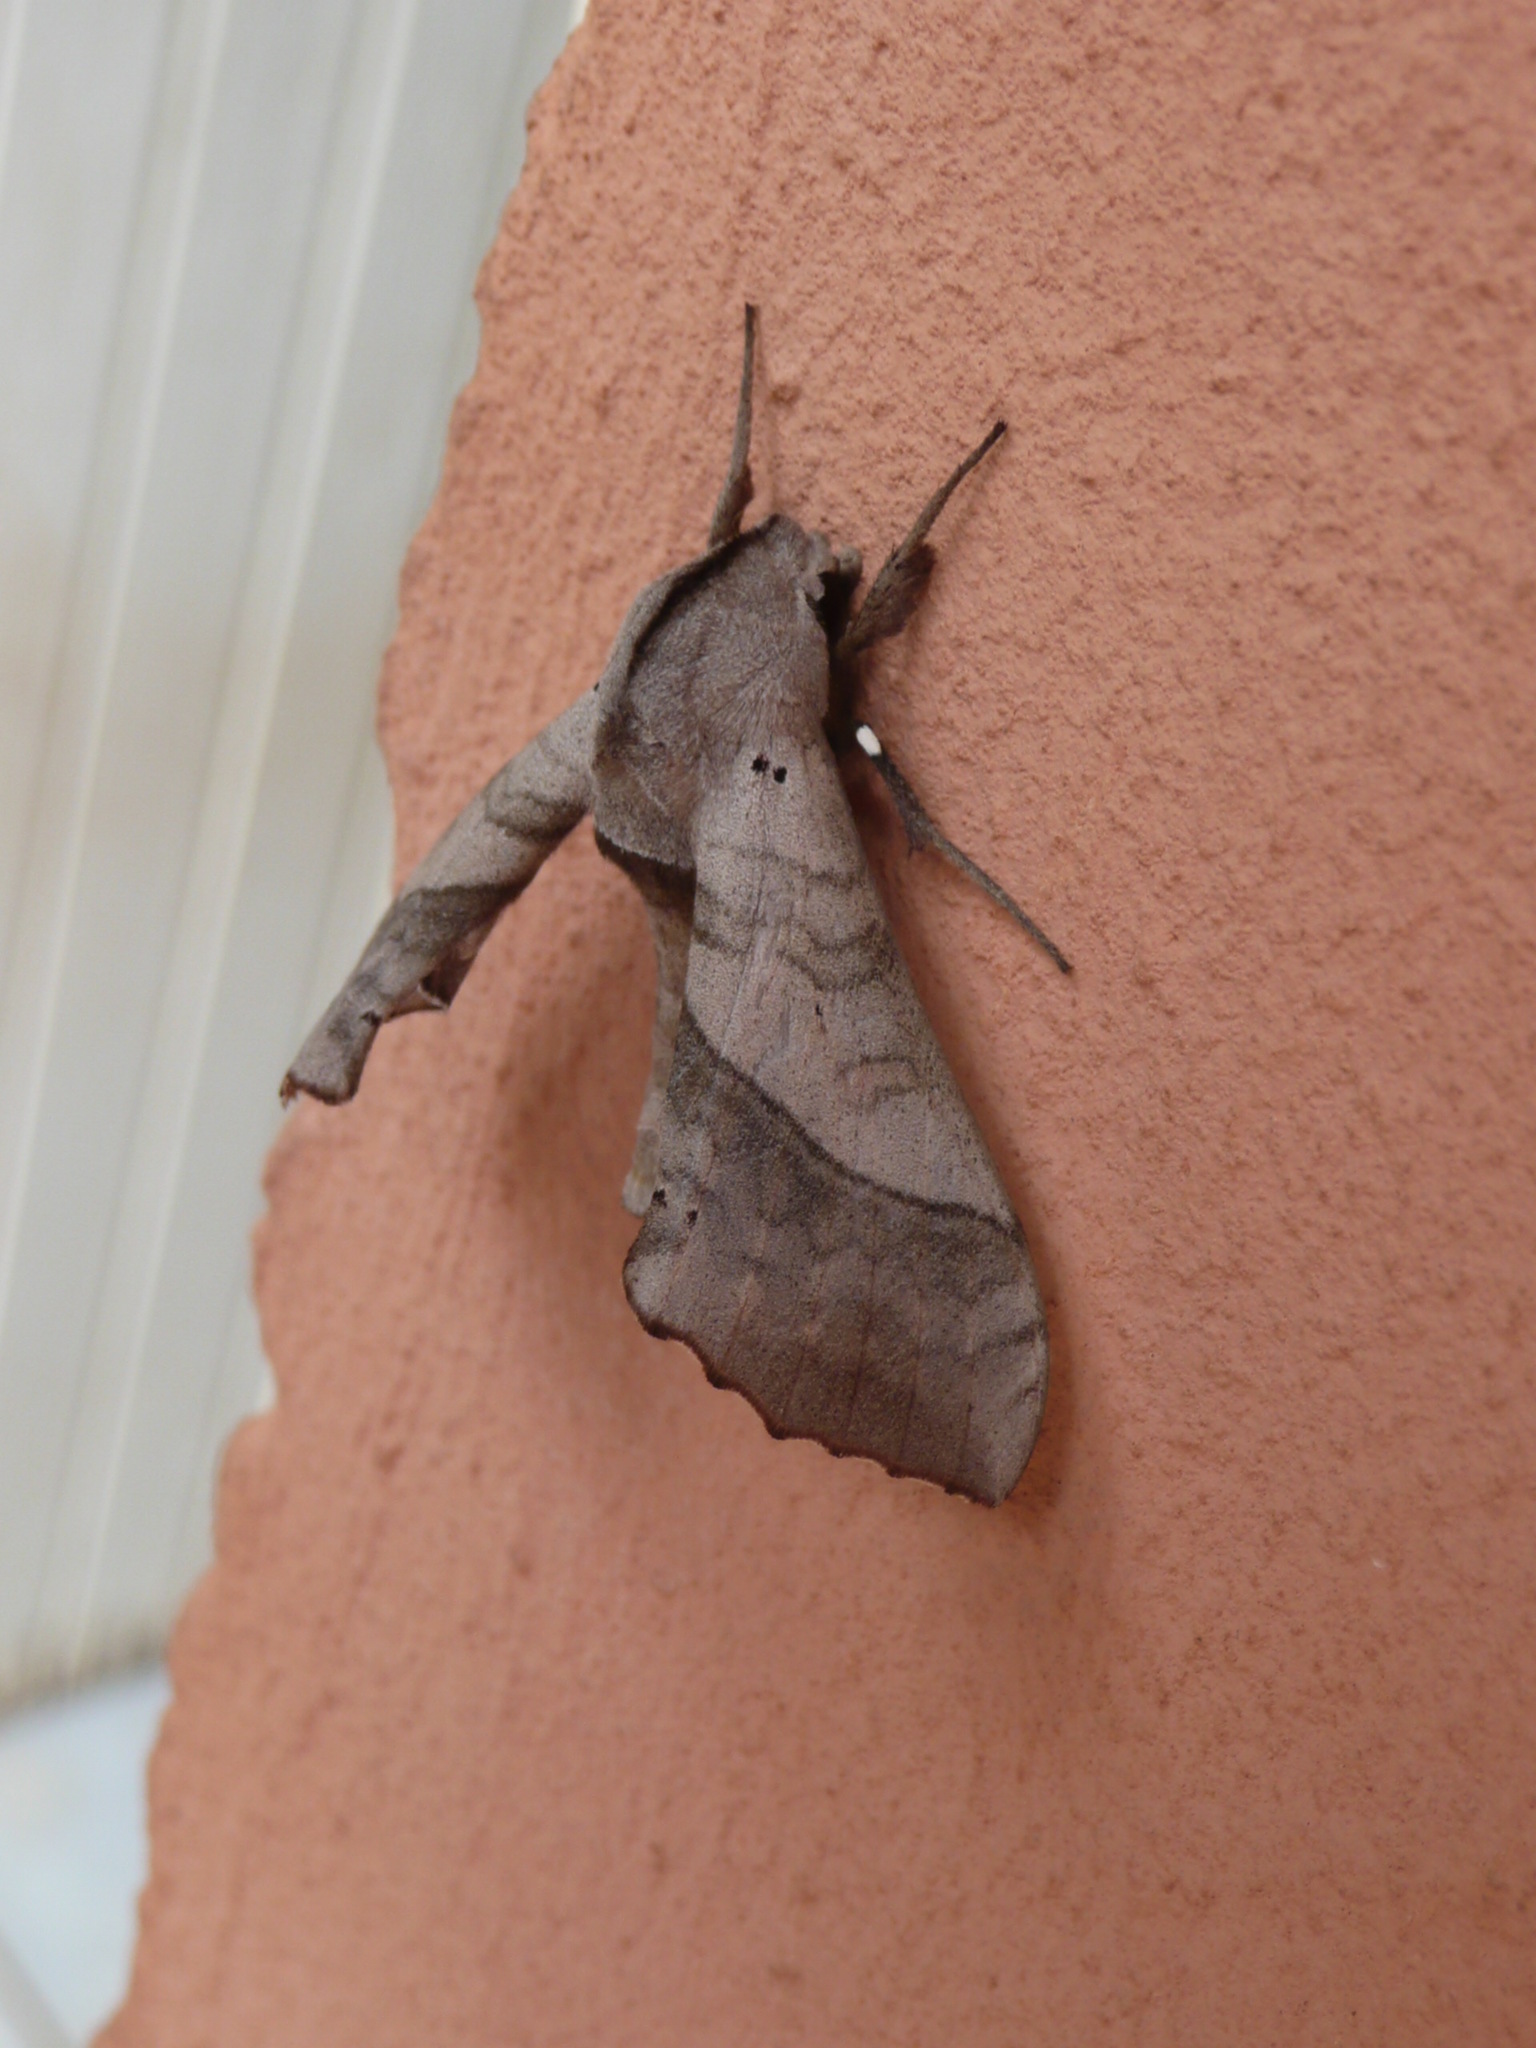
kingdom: Animalia
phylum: Arthropoda
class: Insecta
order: Lepidoptera
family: Sphingidae
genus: Rufoclanis
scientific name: Rufoclanis numosae
